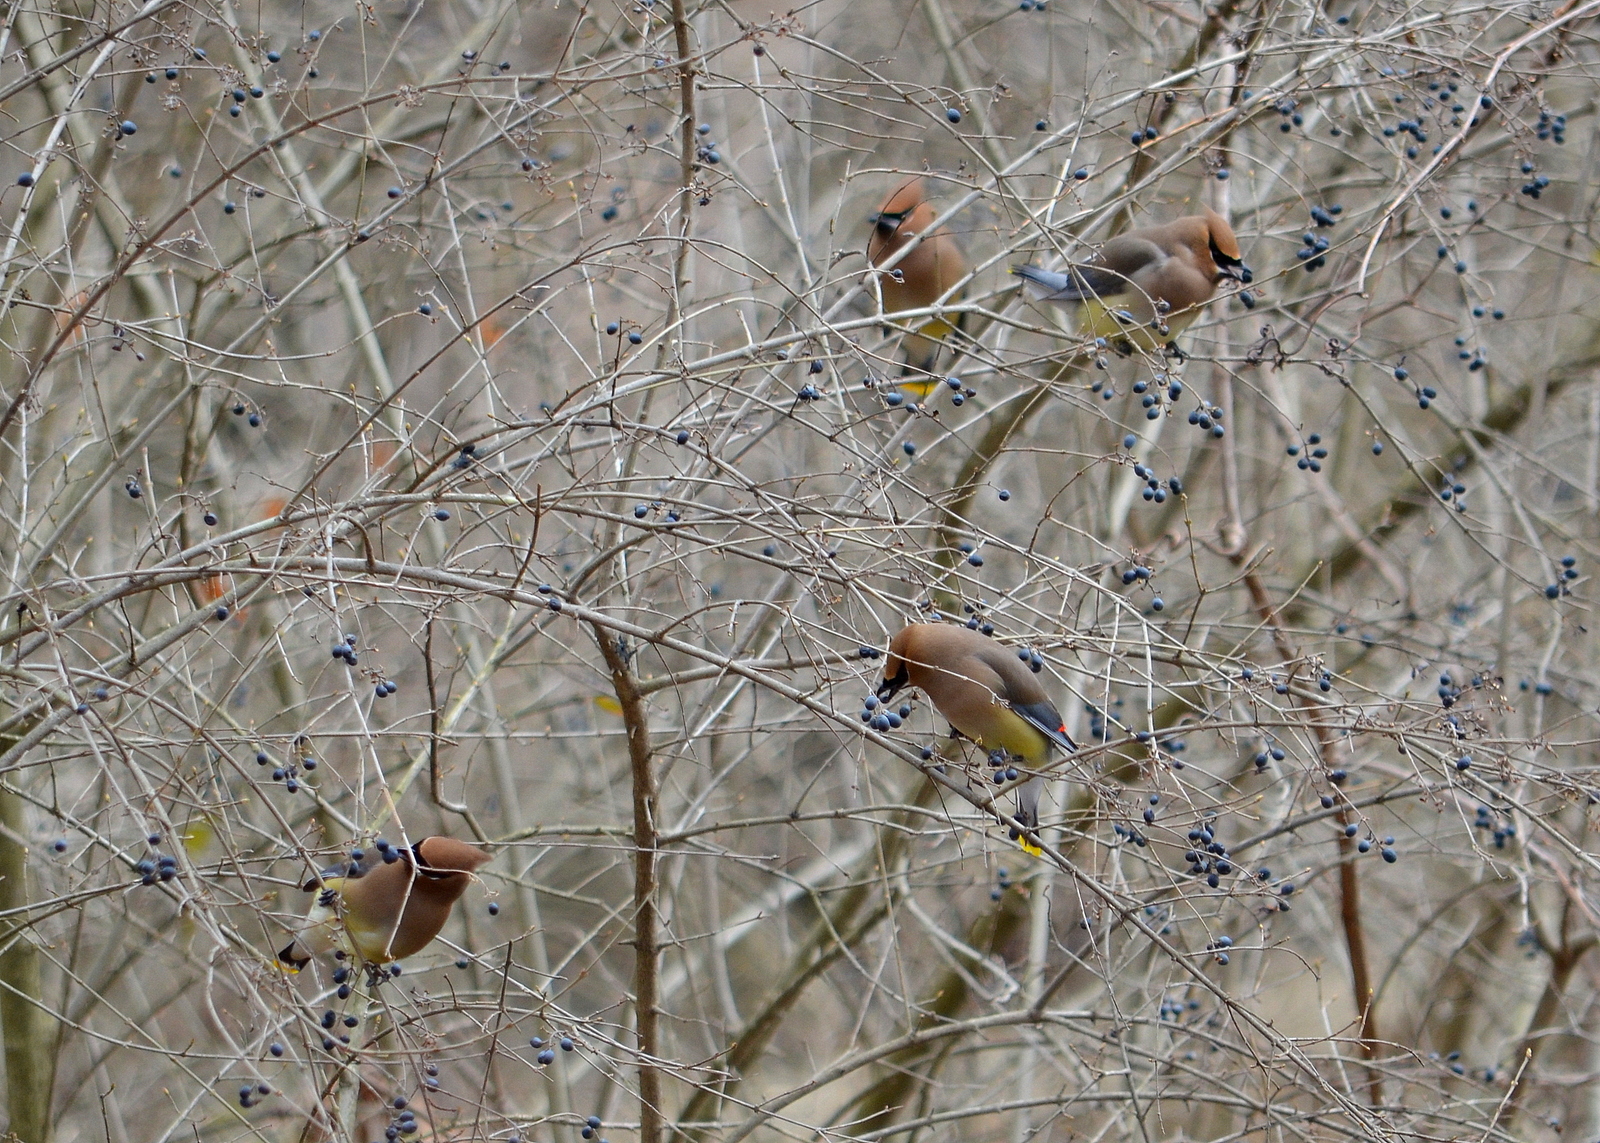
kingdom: Animalia
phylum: Chordata
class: Aves
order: Passeriformes
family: Bombycillidae
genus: Bombycilla
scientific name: Bombycilla cedrorum
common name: Cedar waxwing
